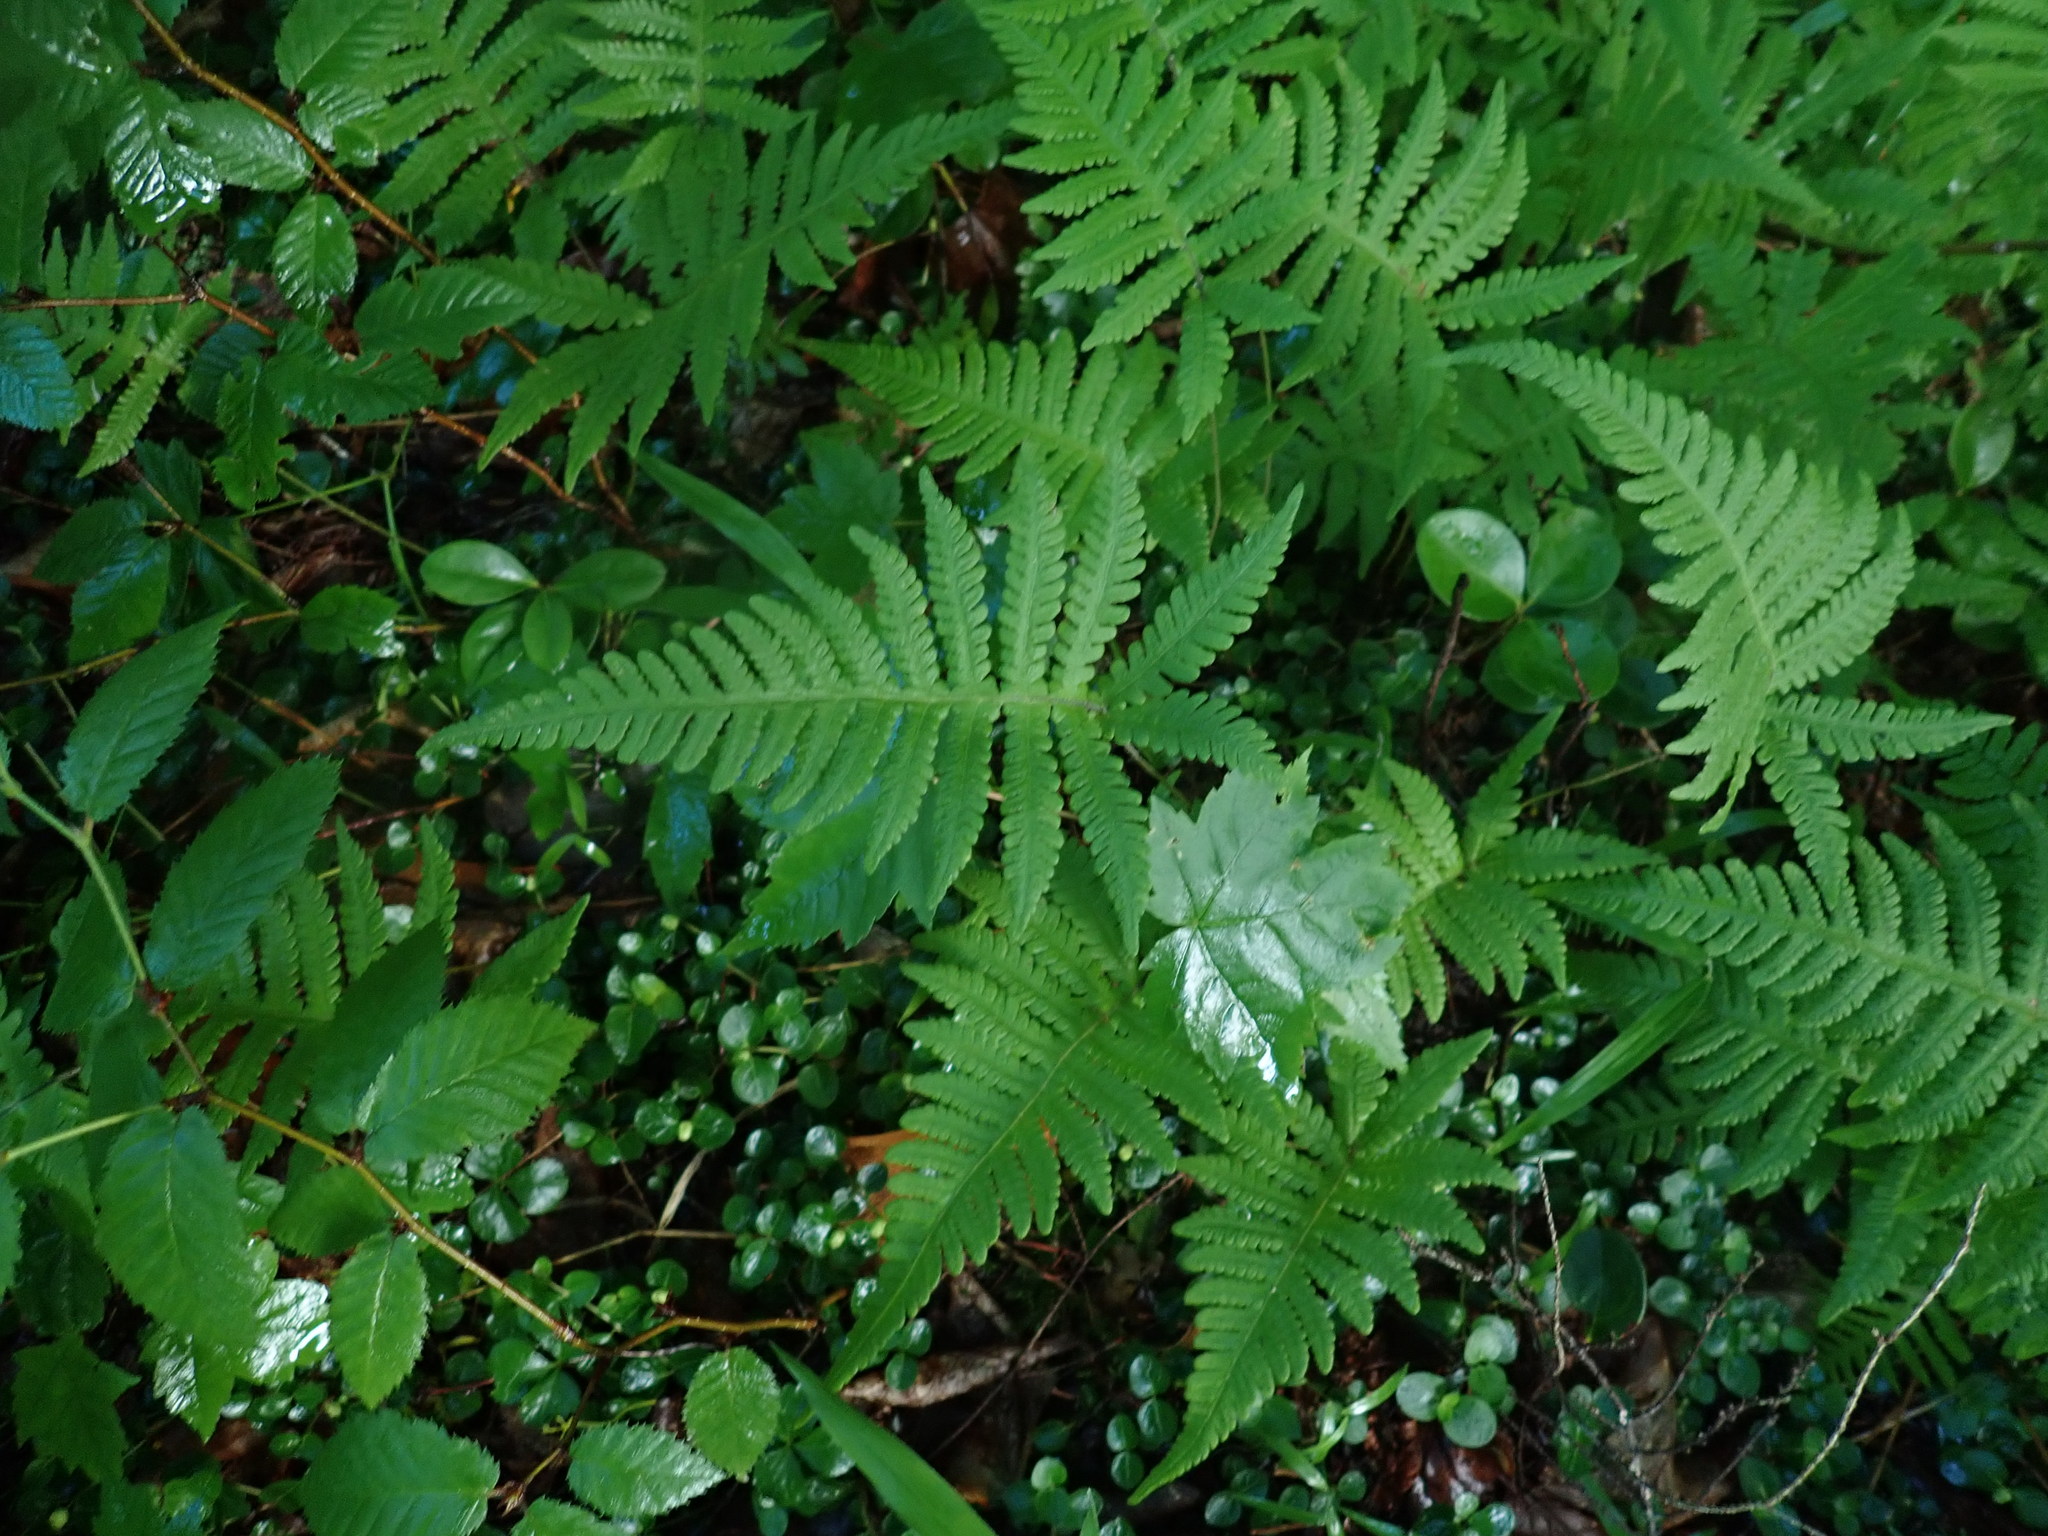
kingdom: Plantae
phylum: Tracheophyta
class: Polypodiopsida
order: Polypodiales
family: Thelypteridaceae
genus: Phegopteris
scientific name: Phegopteris connectilis
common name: Beech fern
